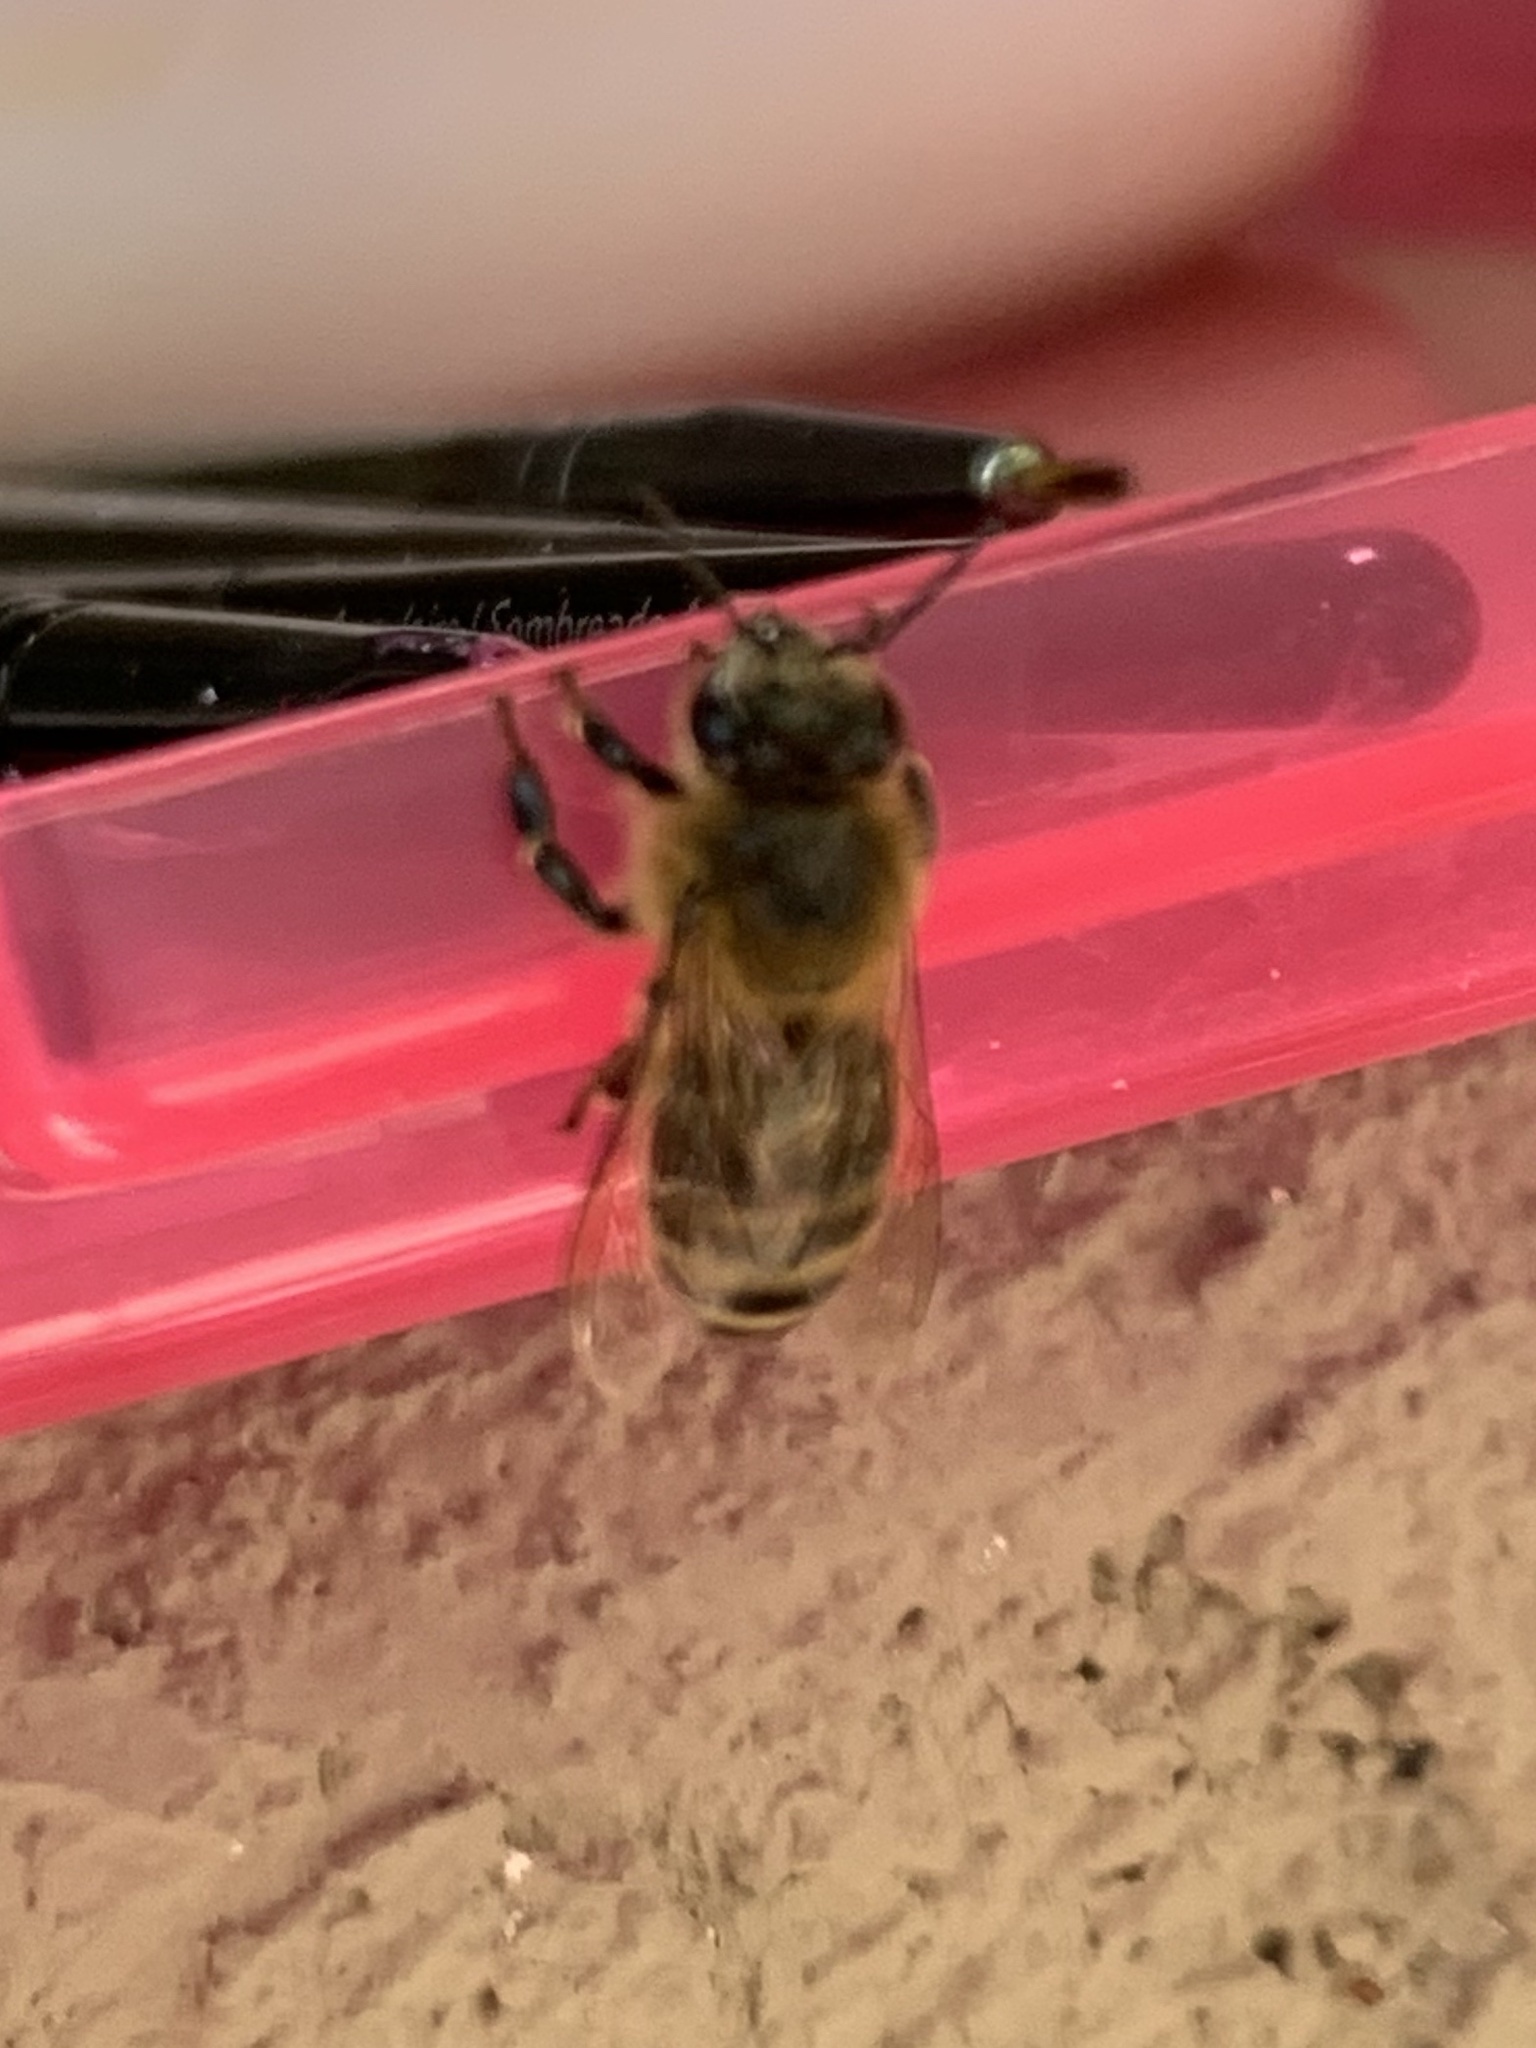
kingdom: Animalia
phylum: Arthropoda
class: Insecta
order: Hymenoptera
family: Apidae
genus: Apis
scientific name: Apis mellifera
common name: Honey bee
